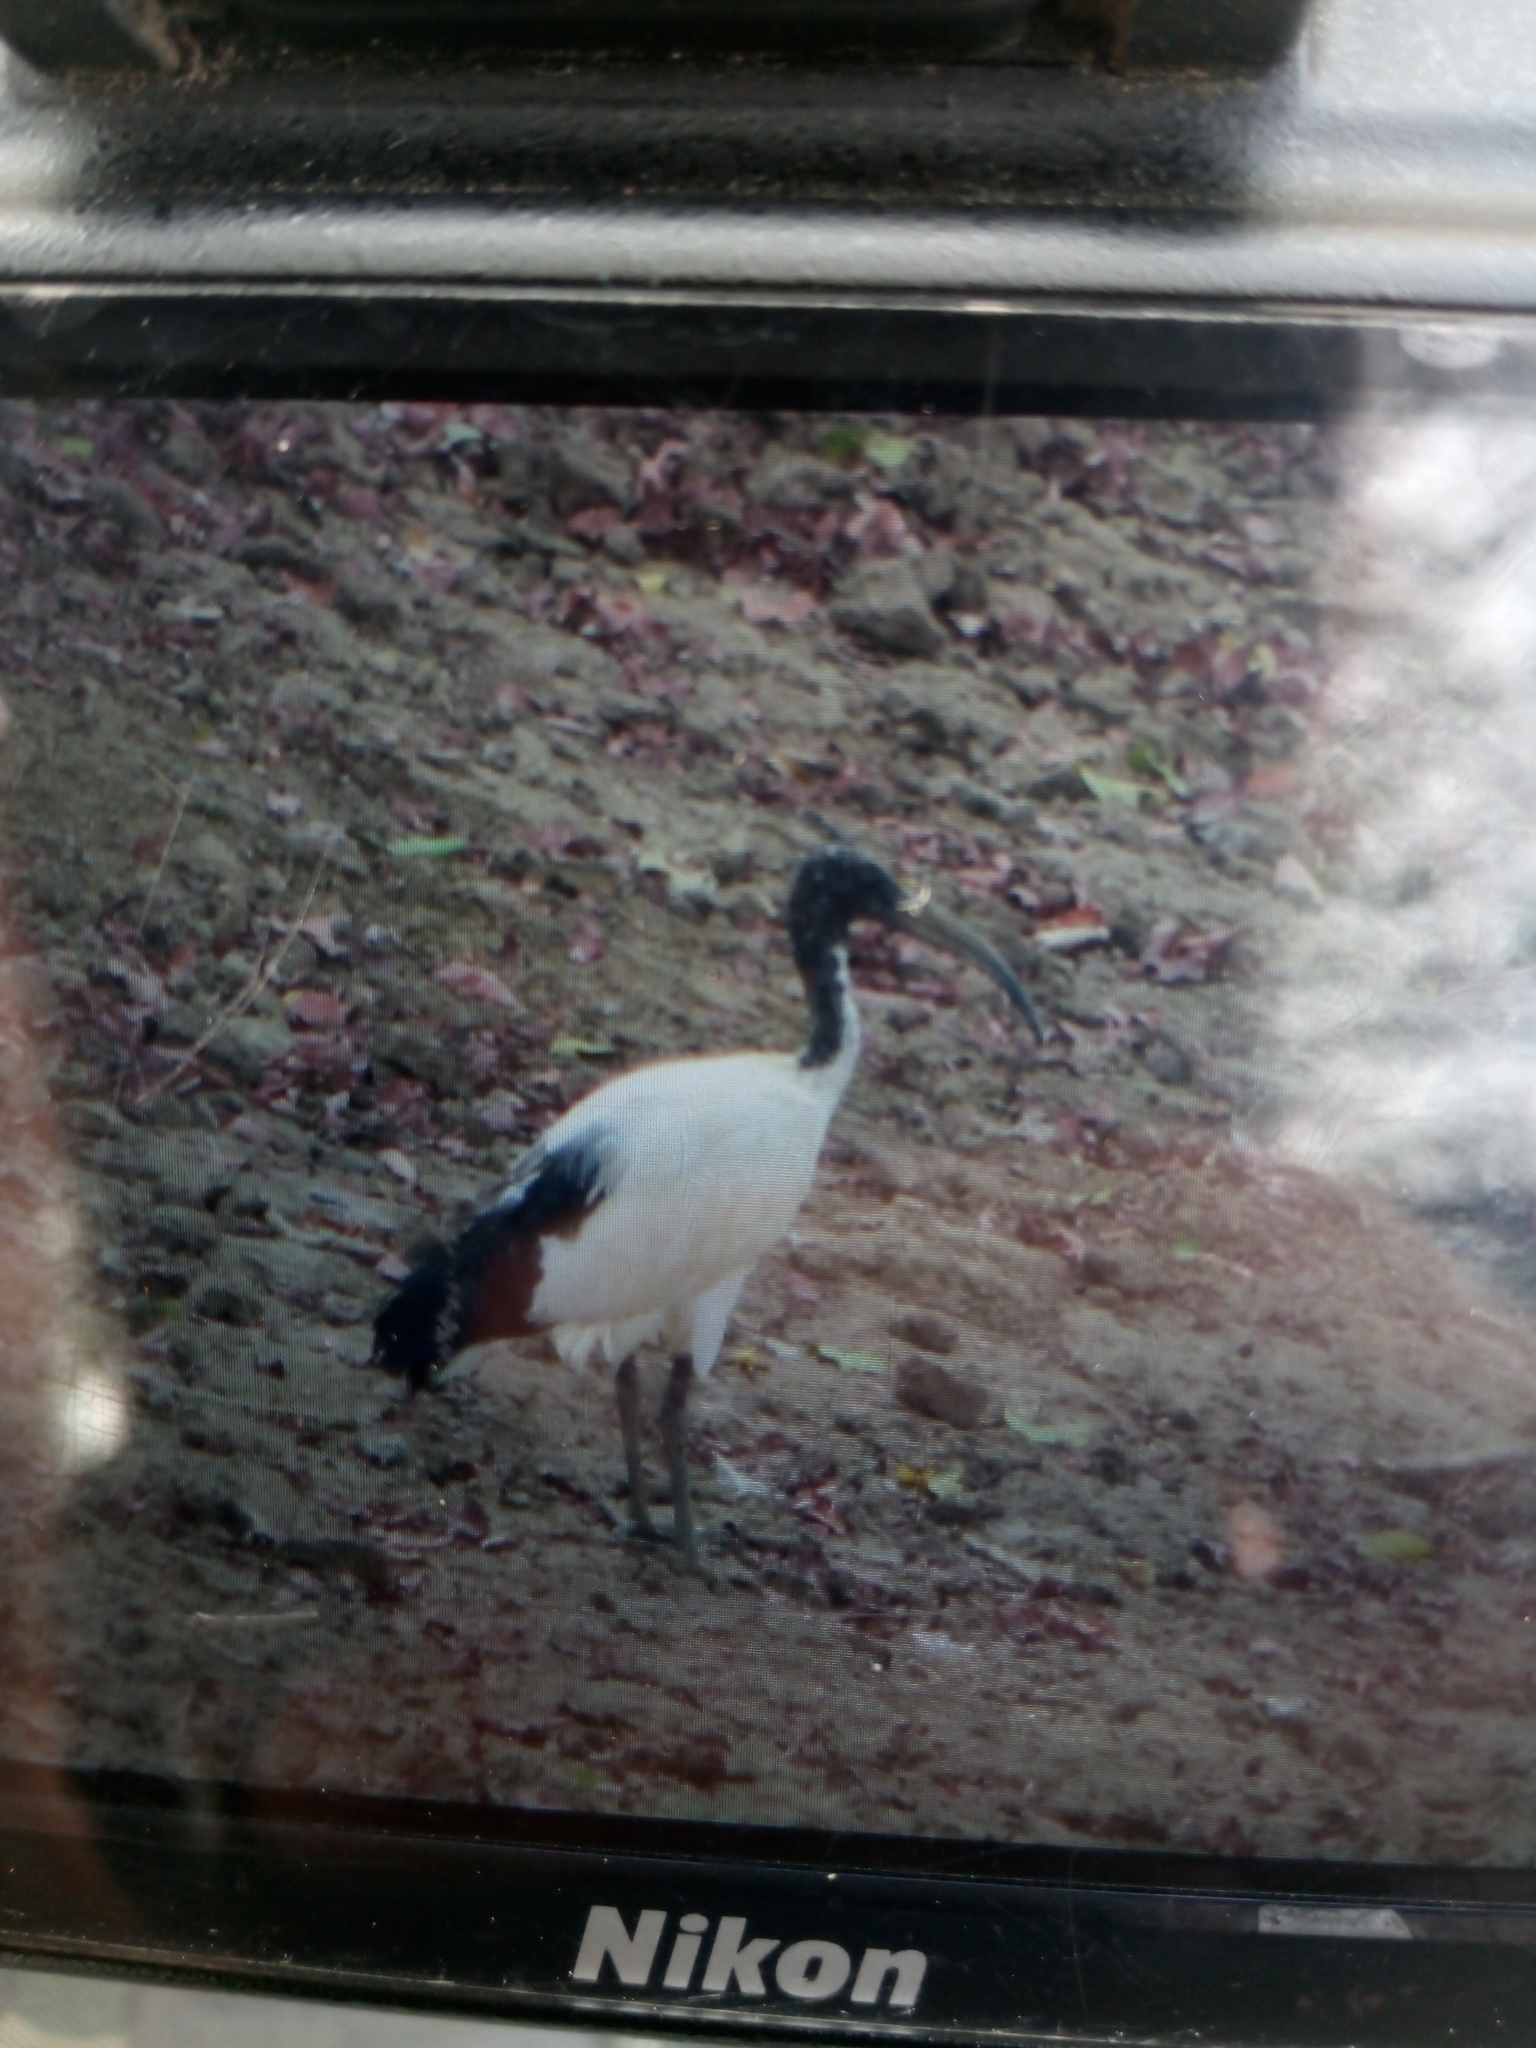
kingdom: Animalia
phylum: Chordata
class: Aves
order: Pelecaniformes
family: Threskiornithidae
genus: Threskiornis
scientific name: Threskiornis aethiopicus
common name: Sacred ibis
